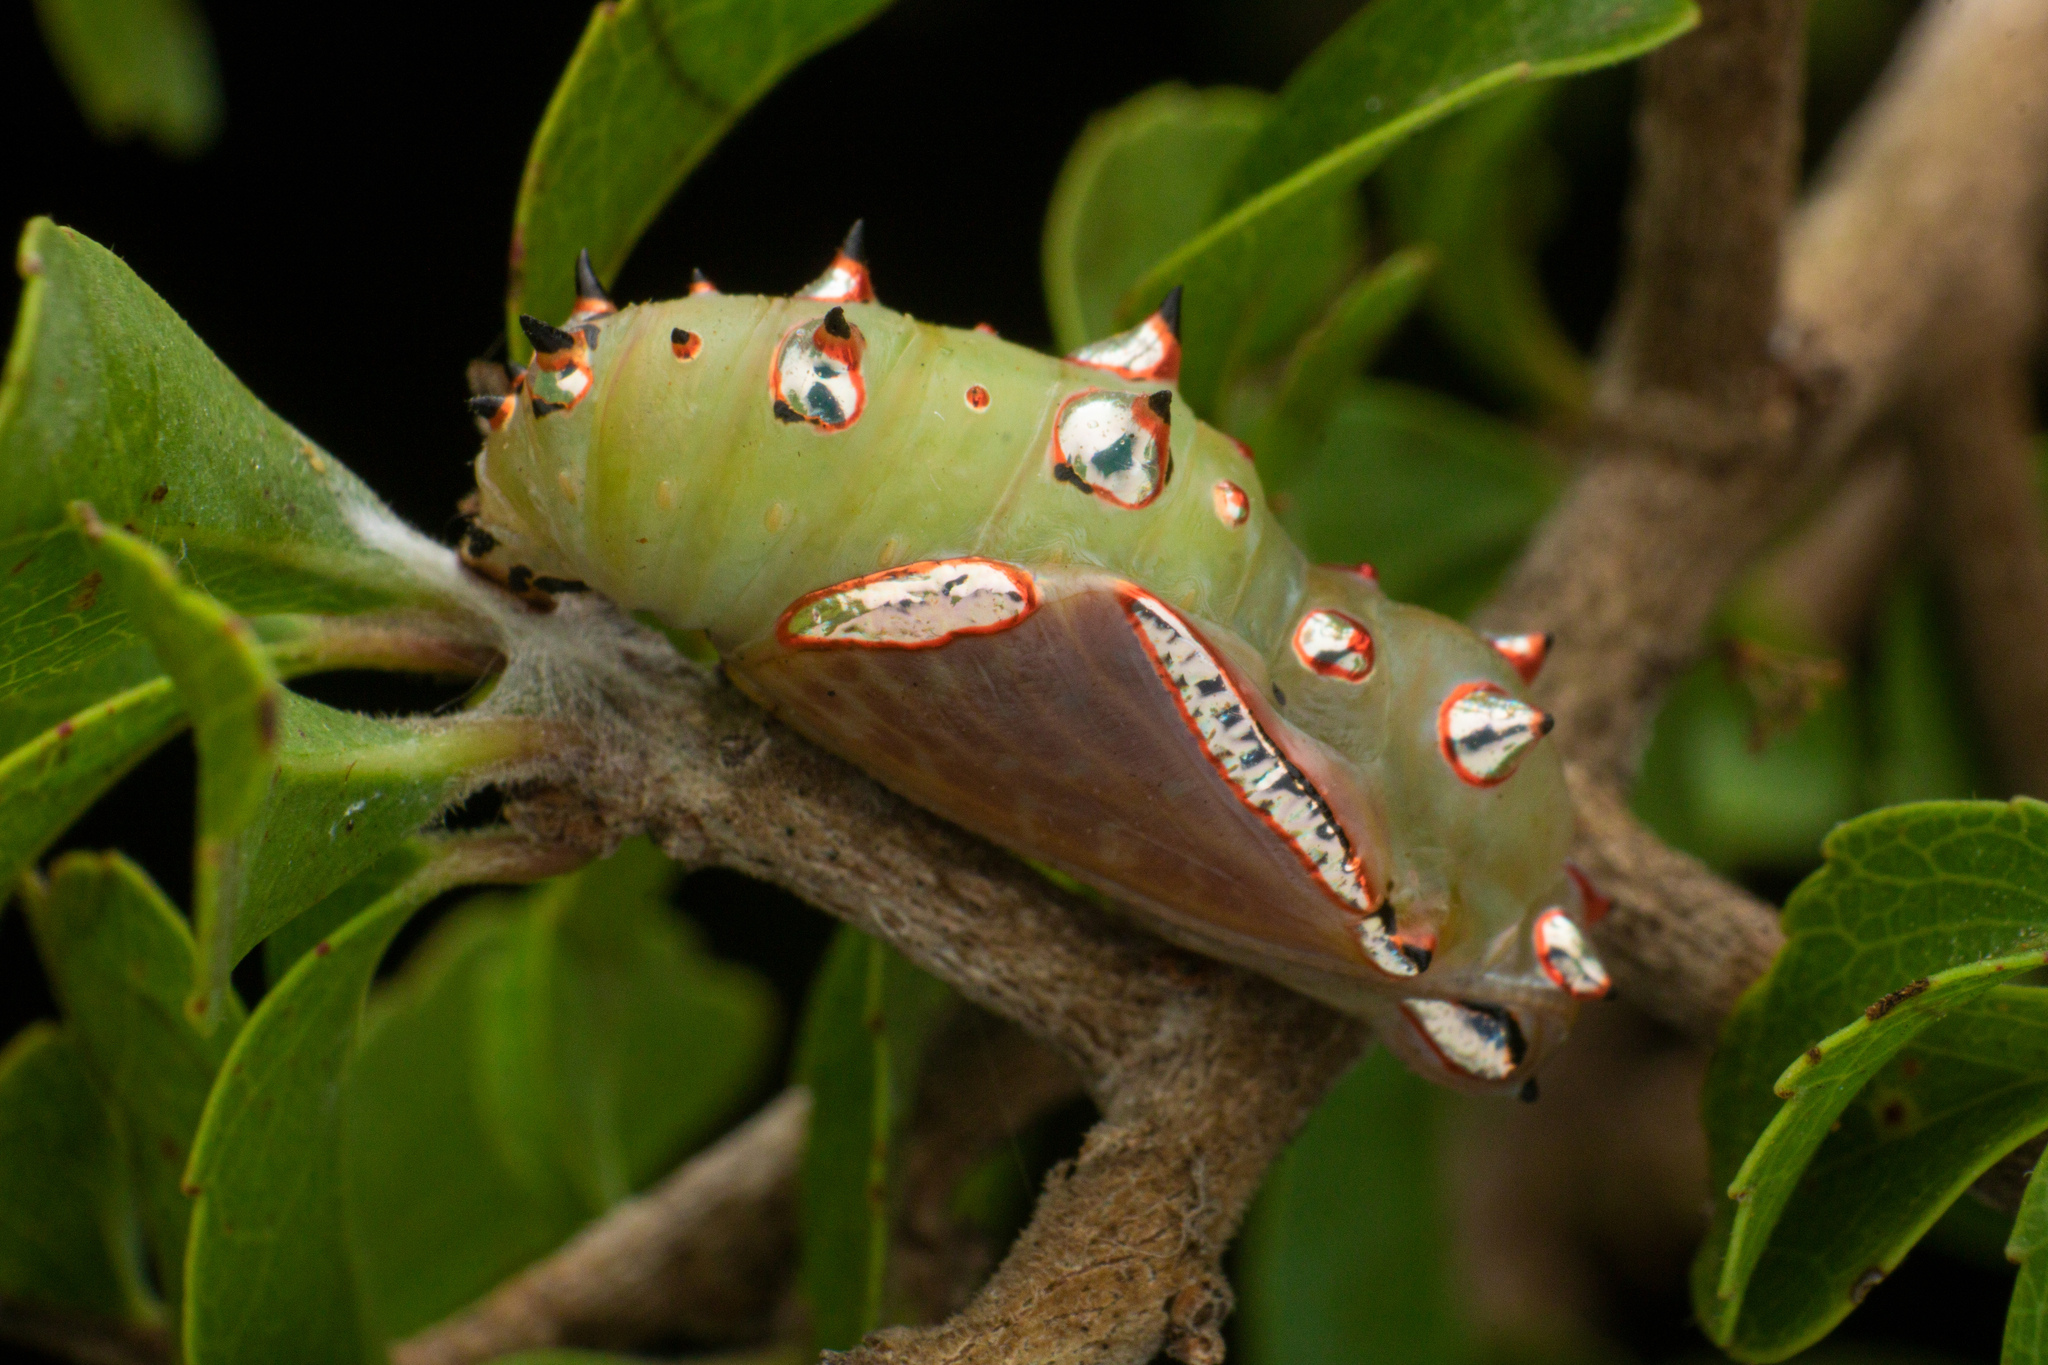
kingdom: Animalia
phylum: Arthropoda
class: Insecta
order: Lepidoptera
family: Nymphalidae
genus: Phalanta
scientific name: Phalanta phalantha
